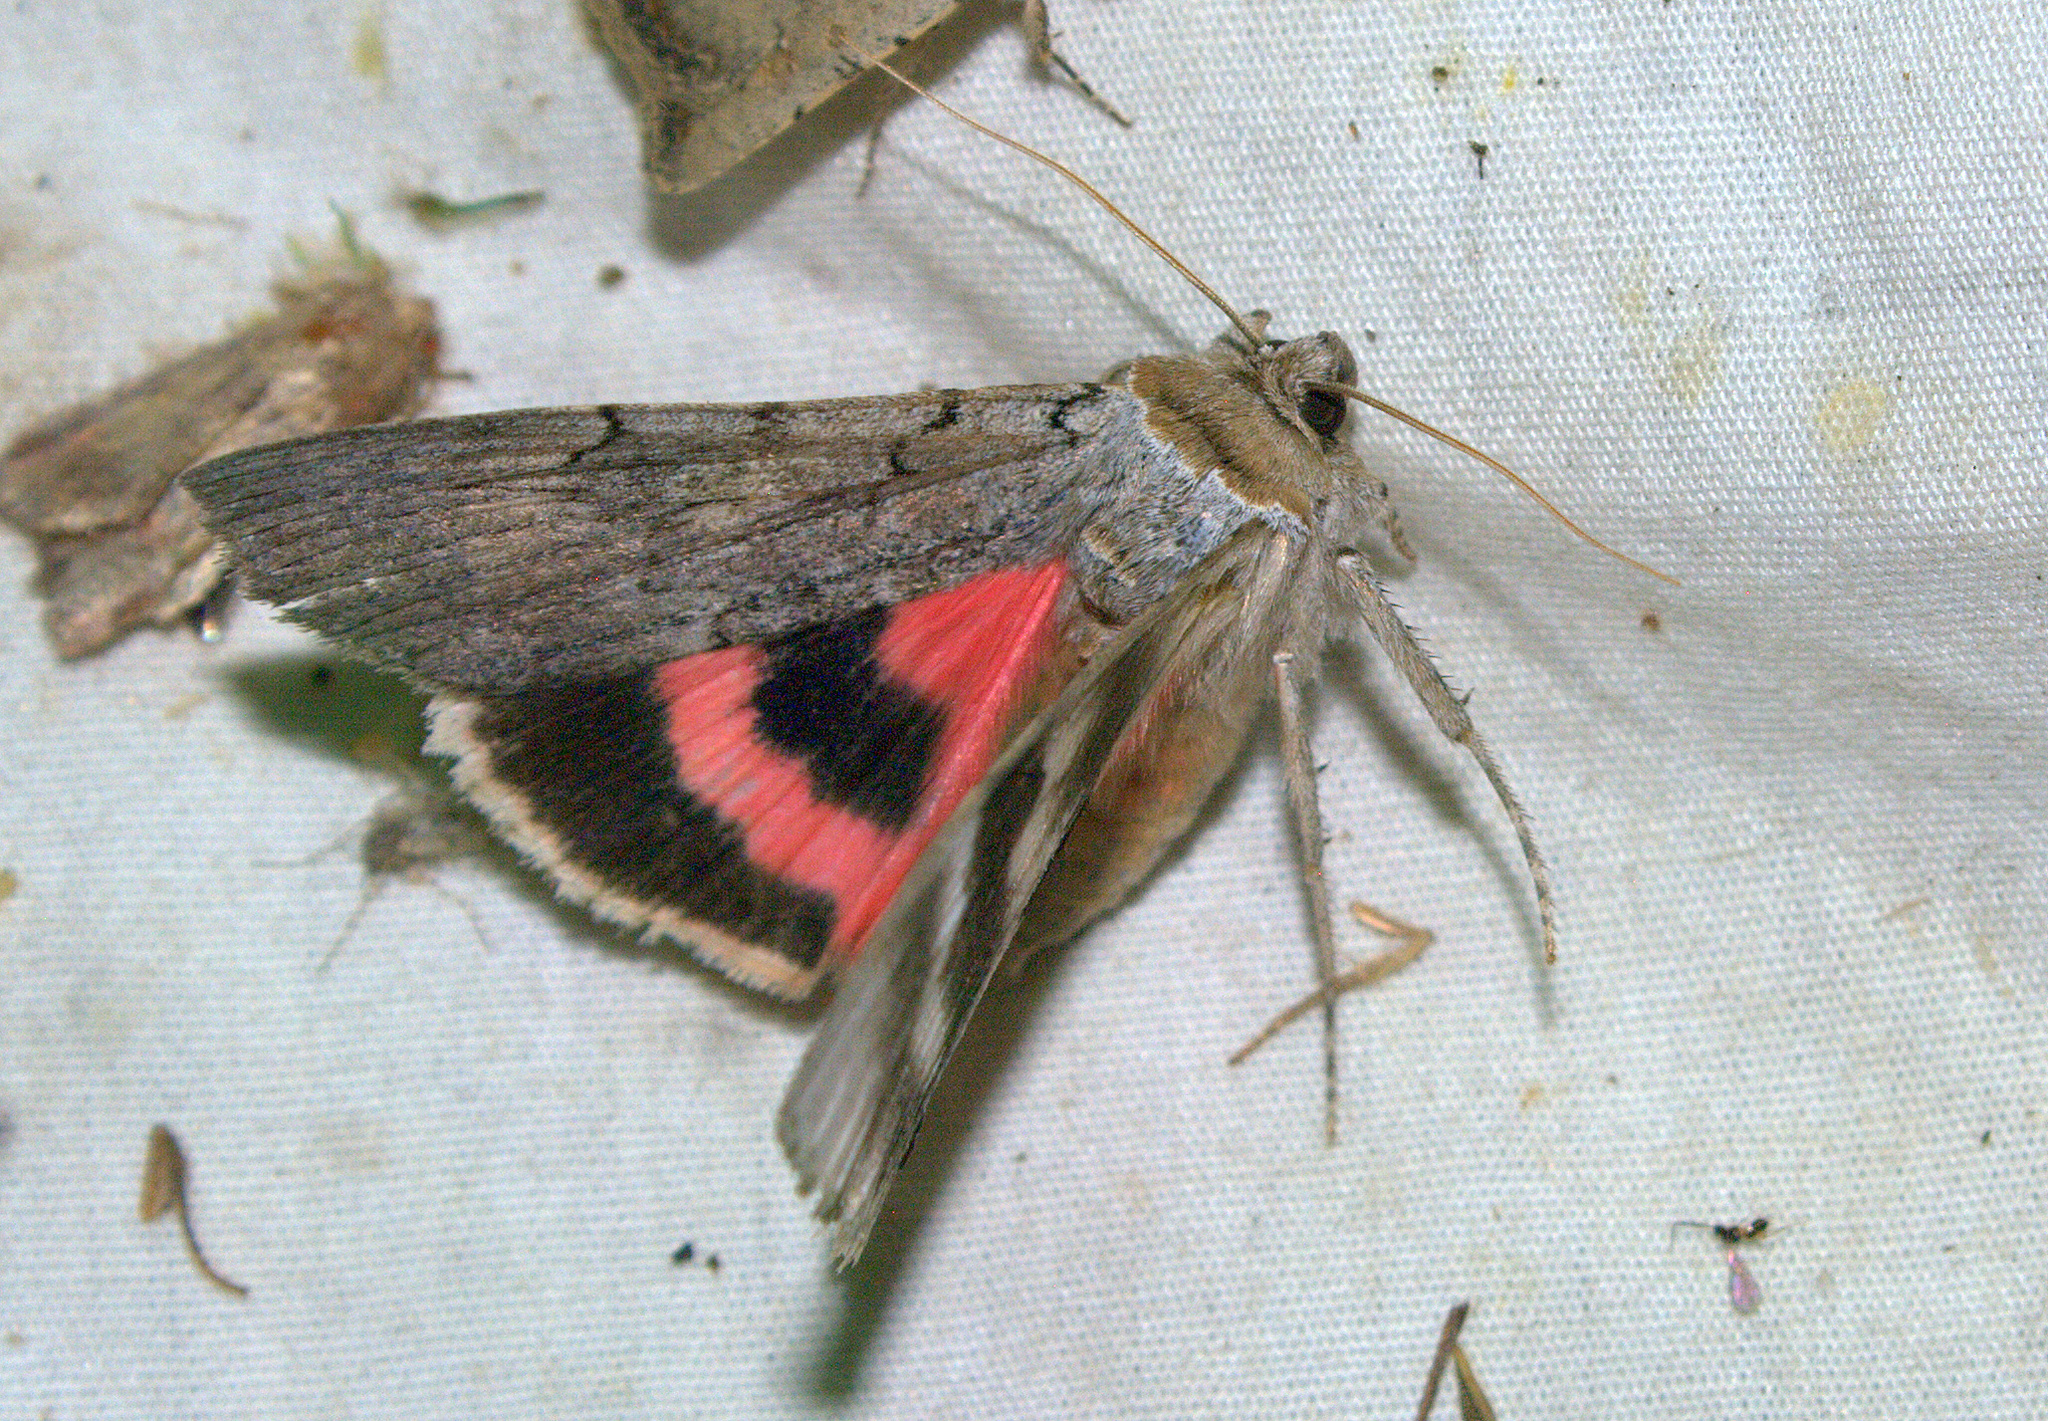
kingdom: Animalia
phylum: Arthropoda
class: Insecta
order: Lepidoptera
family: Erebidae
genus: Catocala
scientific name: Catocala concumbens
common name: Pink underwing
